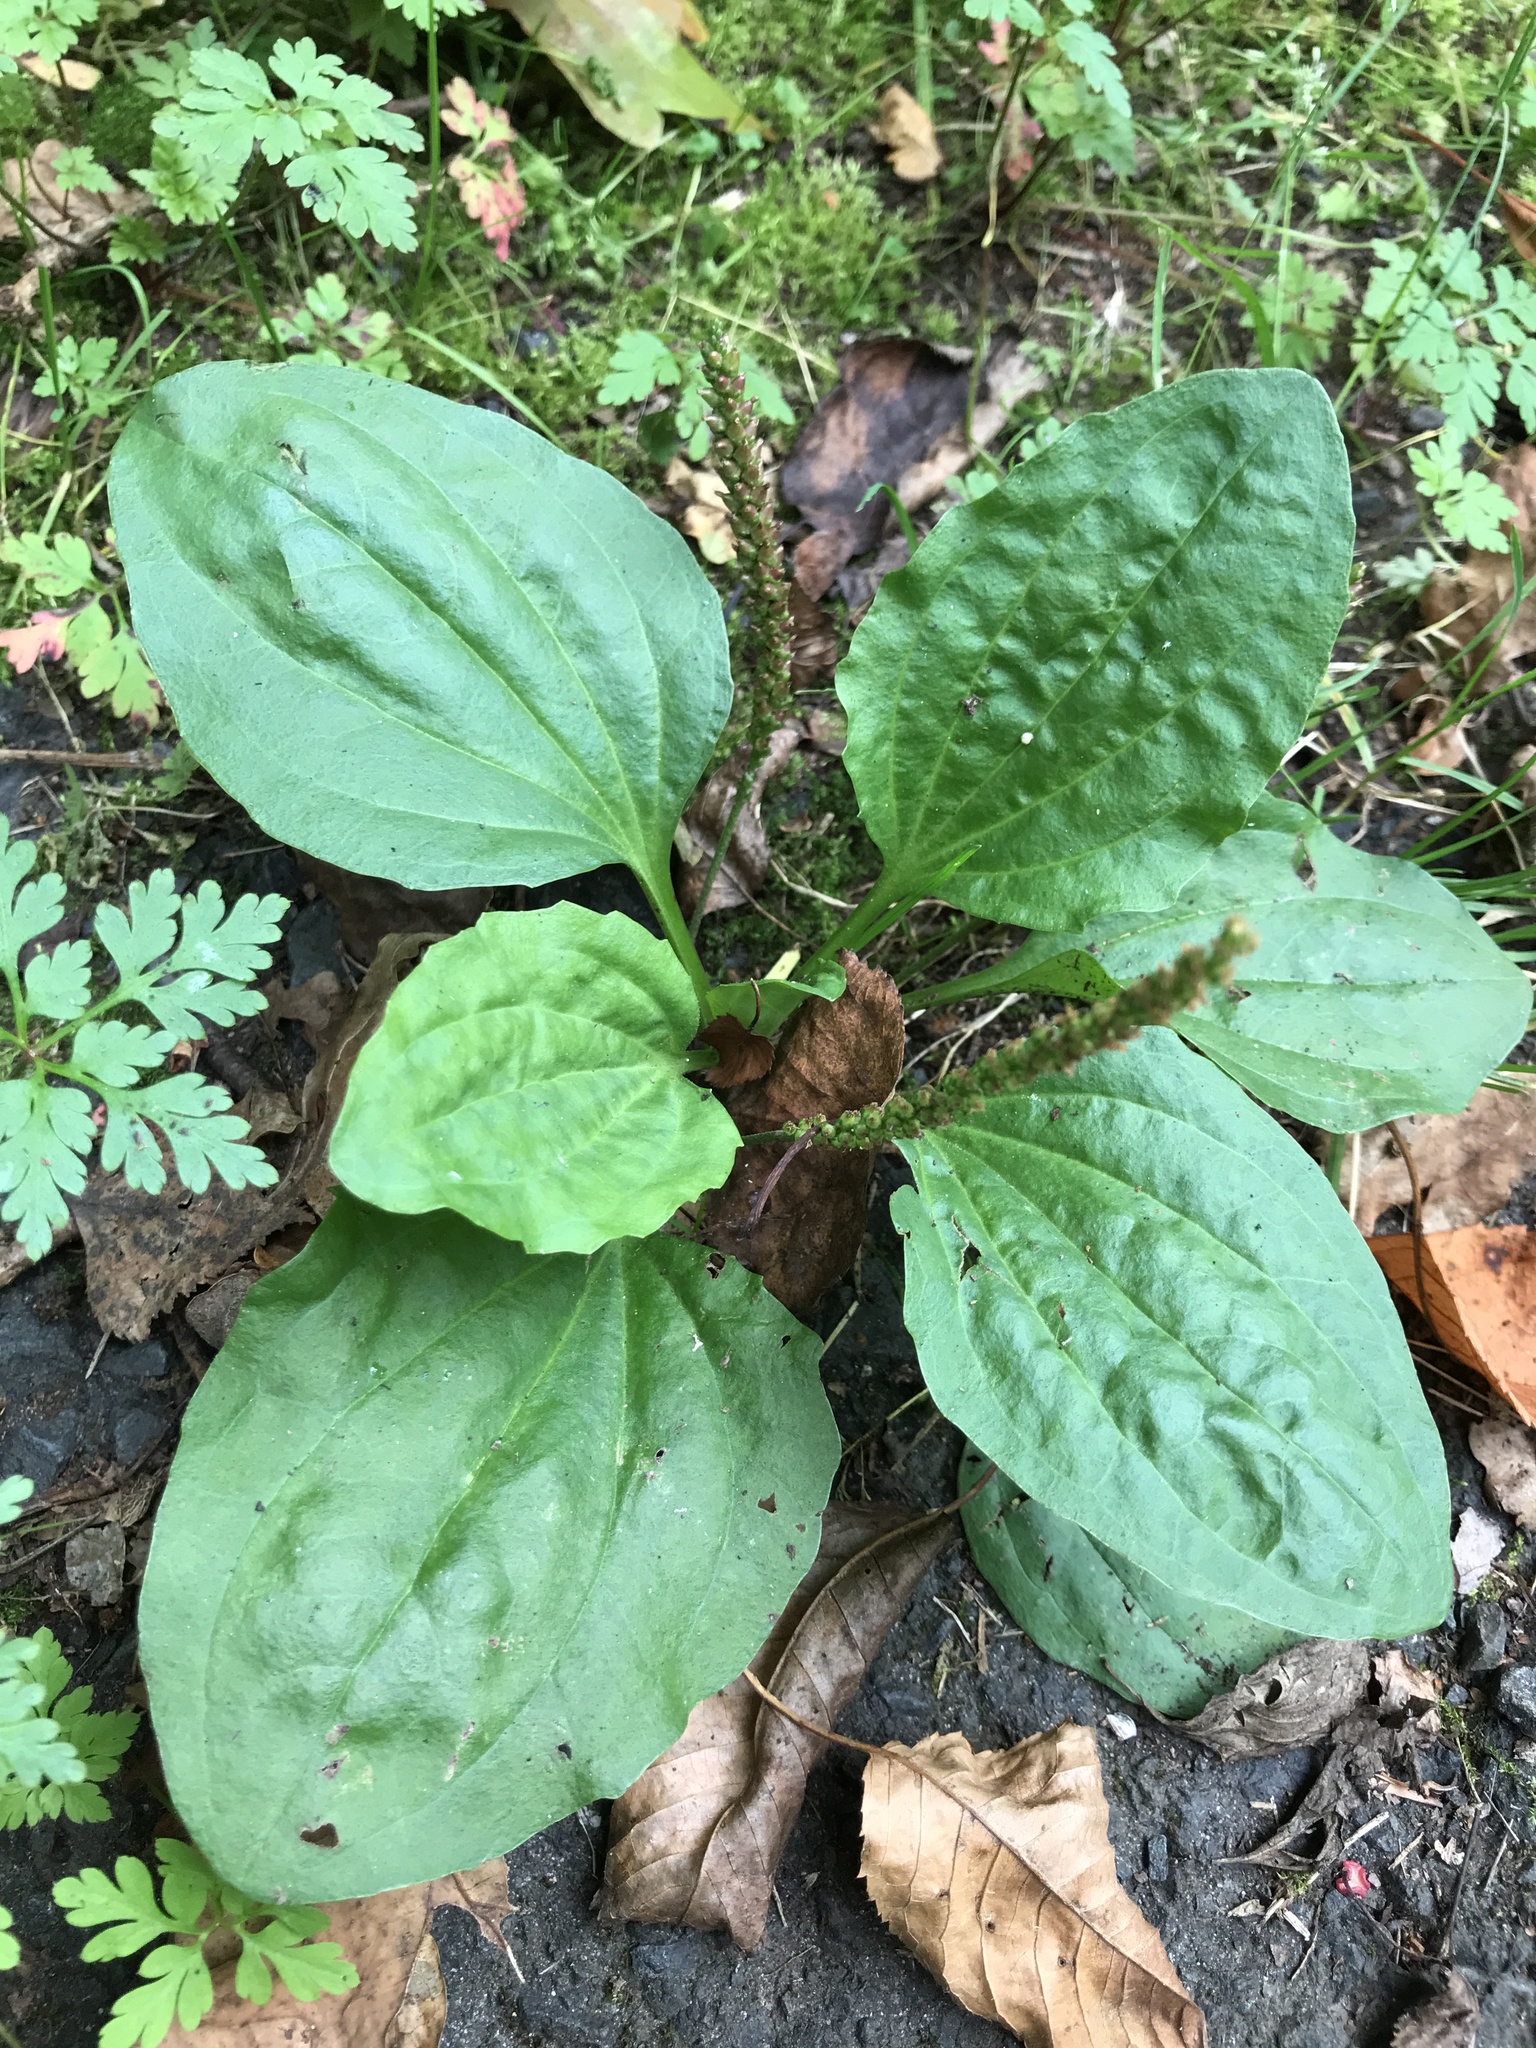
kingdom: Plantae
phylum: Tracheophyta
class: Magnoliopsida
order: Lamiales
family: Plantaginaceae
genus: Plantago
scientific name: Plantago major
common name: Common plantain
